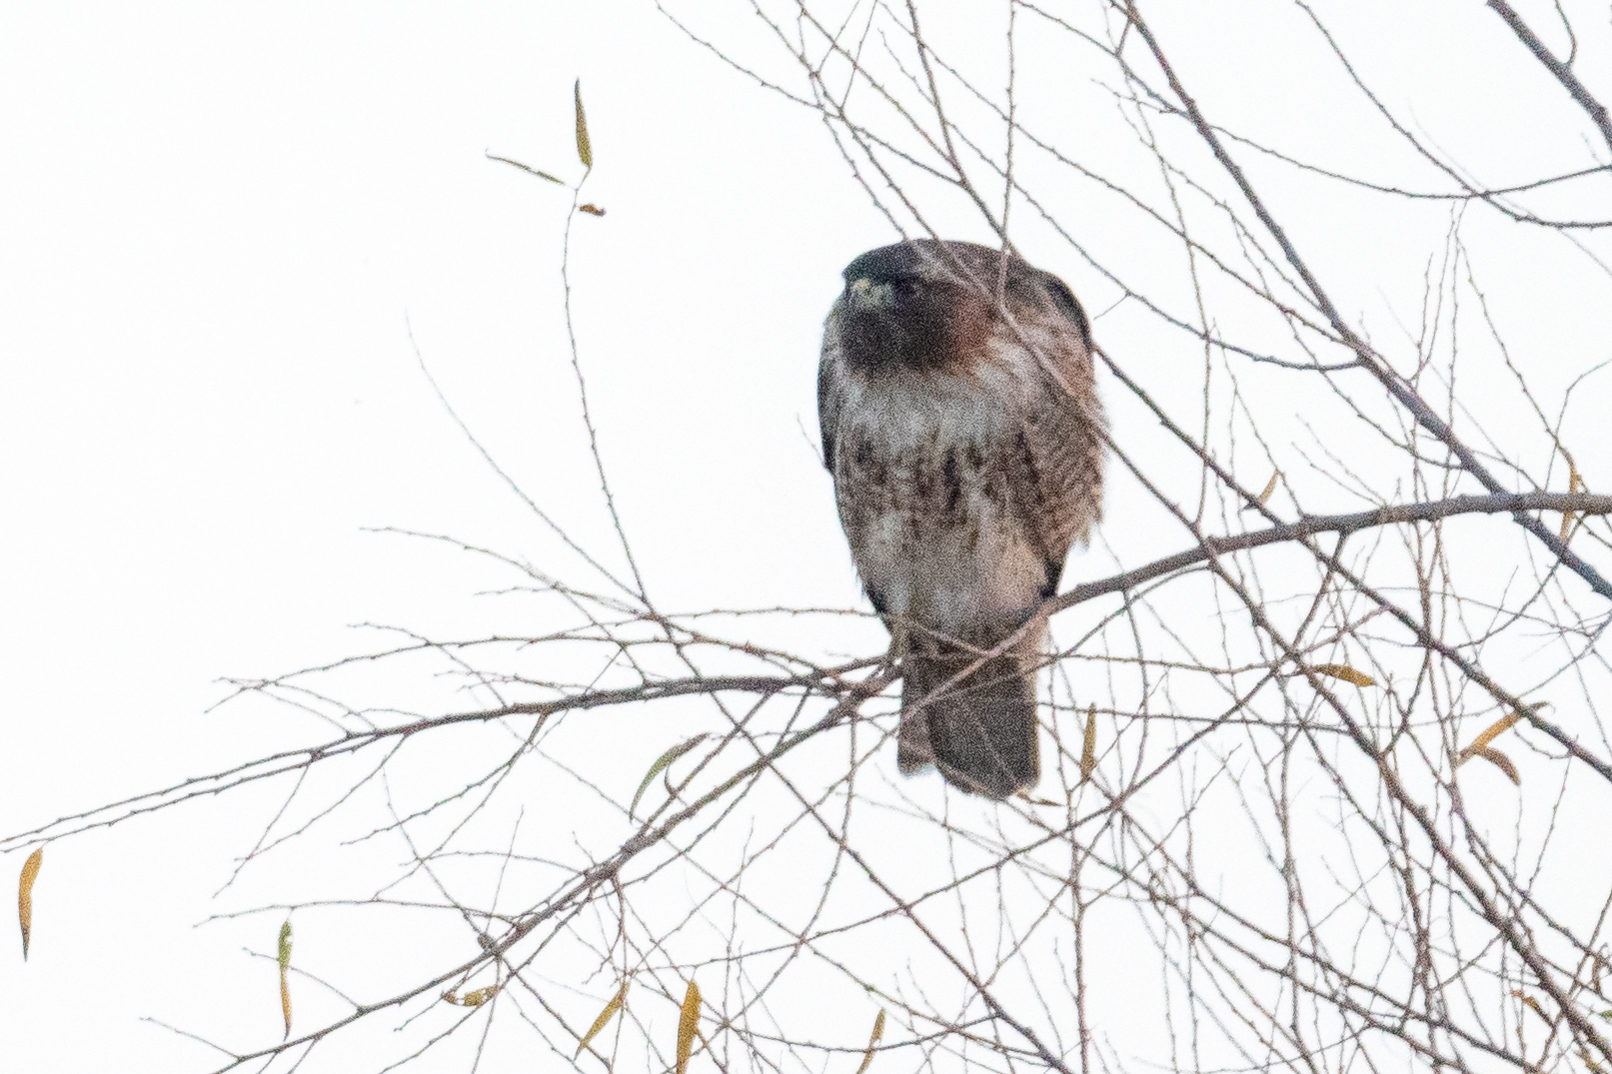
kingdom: Animalia
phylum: Chordata
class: Aves
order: Accipitriformes
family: Accipitridae
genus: Buteo
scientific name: Buteo jamaicensis
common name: Red-tailed hawk
